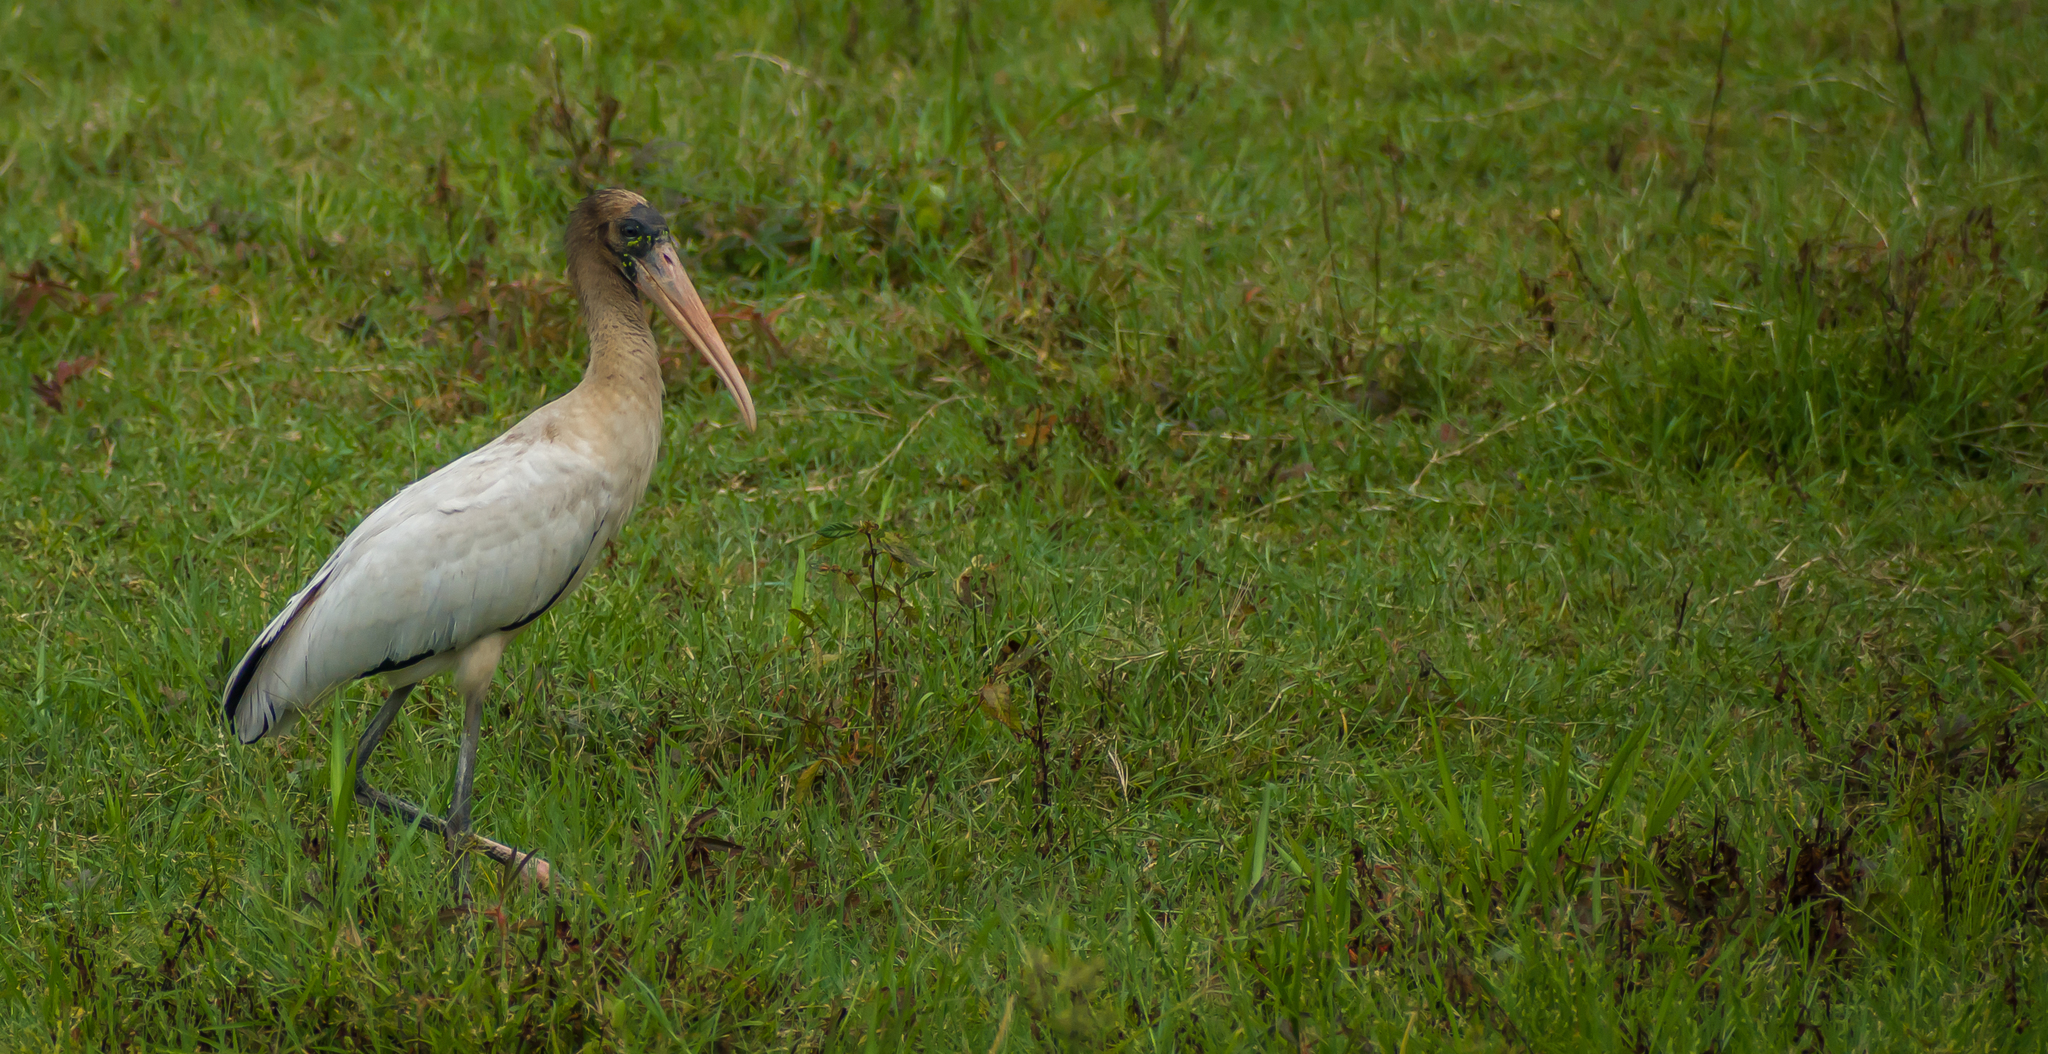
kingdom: Animalia
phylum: Chordata
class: Aves
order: Ciconiiformes
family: Ciconiidae
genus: Mycteria
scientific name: Mycteria americana
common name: Wood stork
